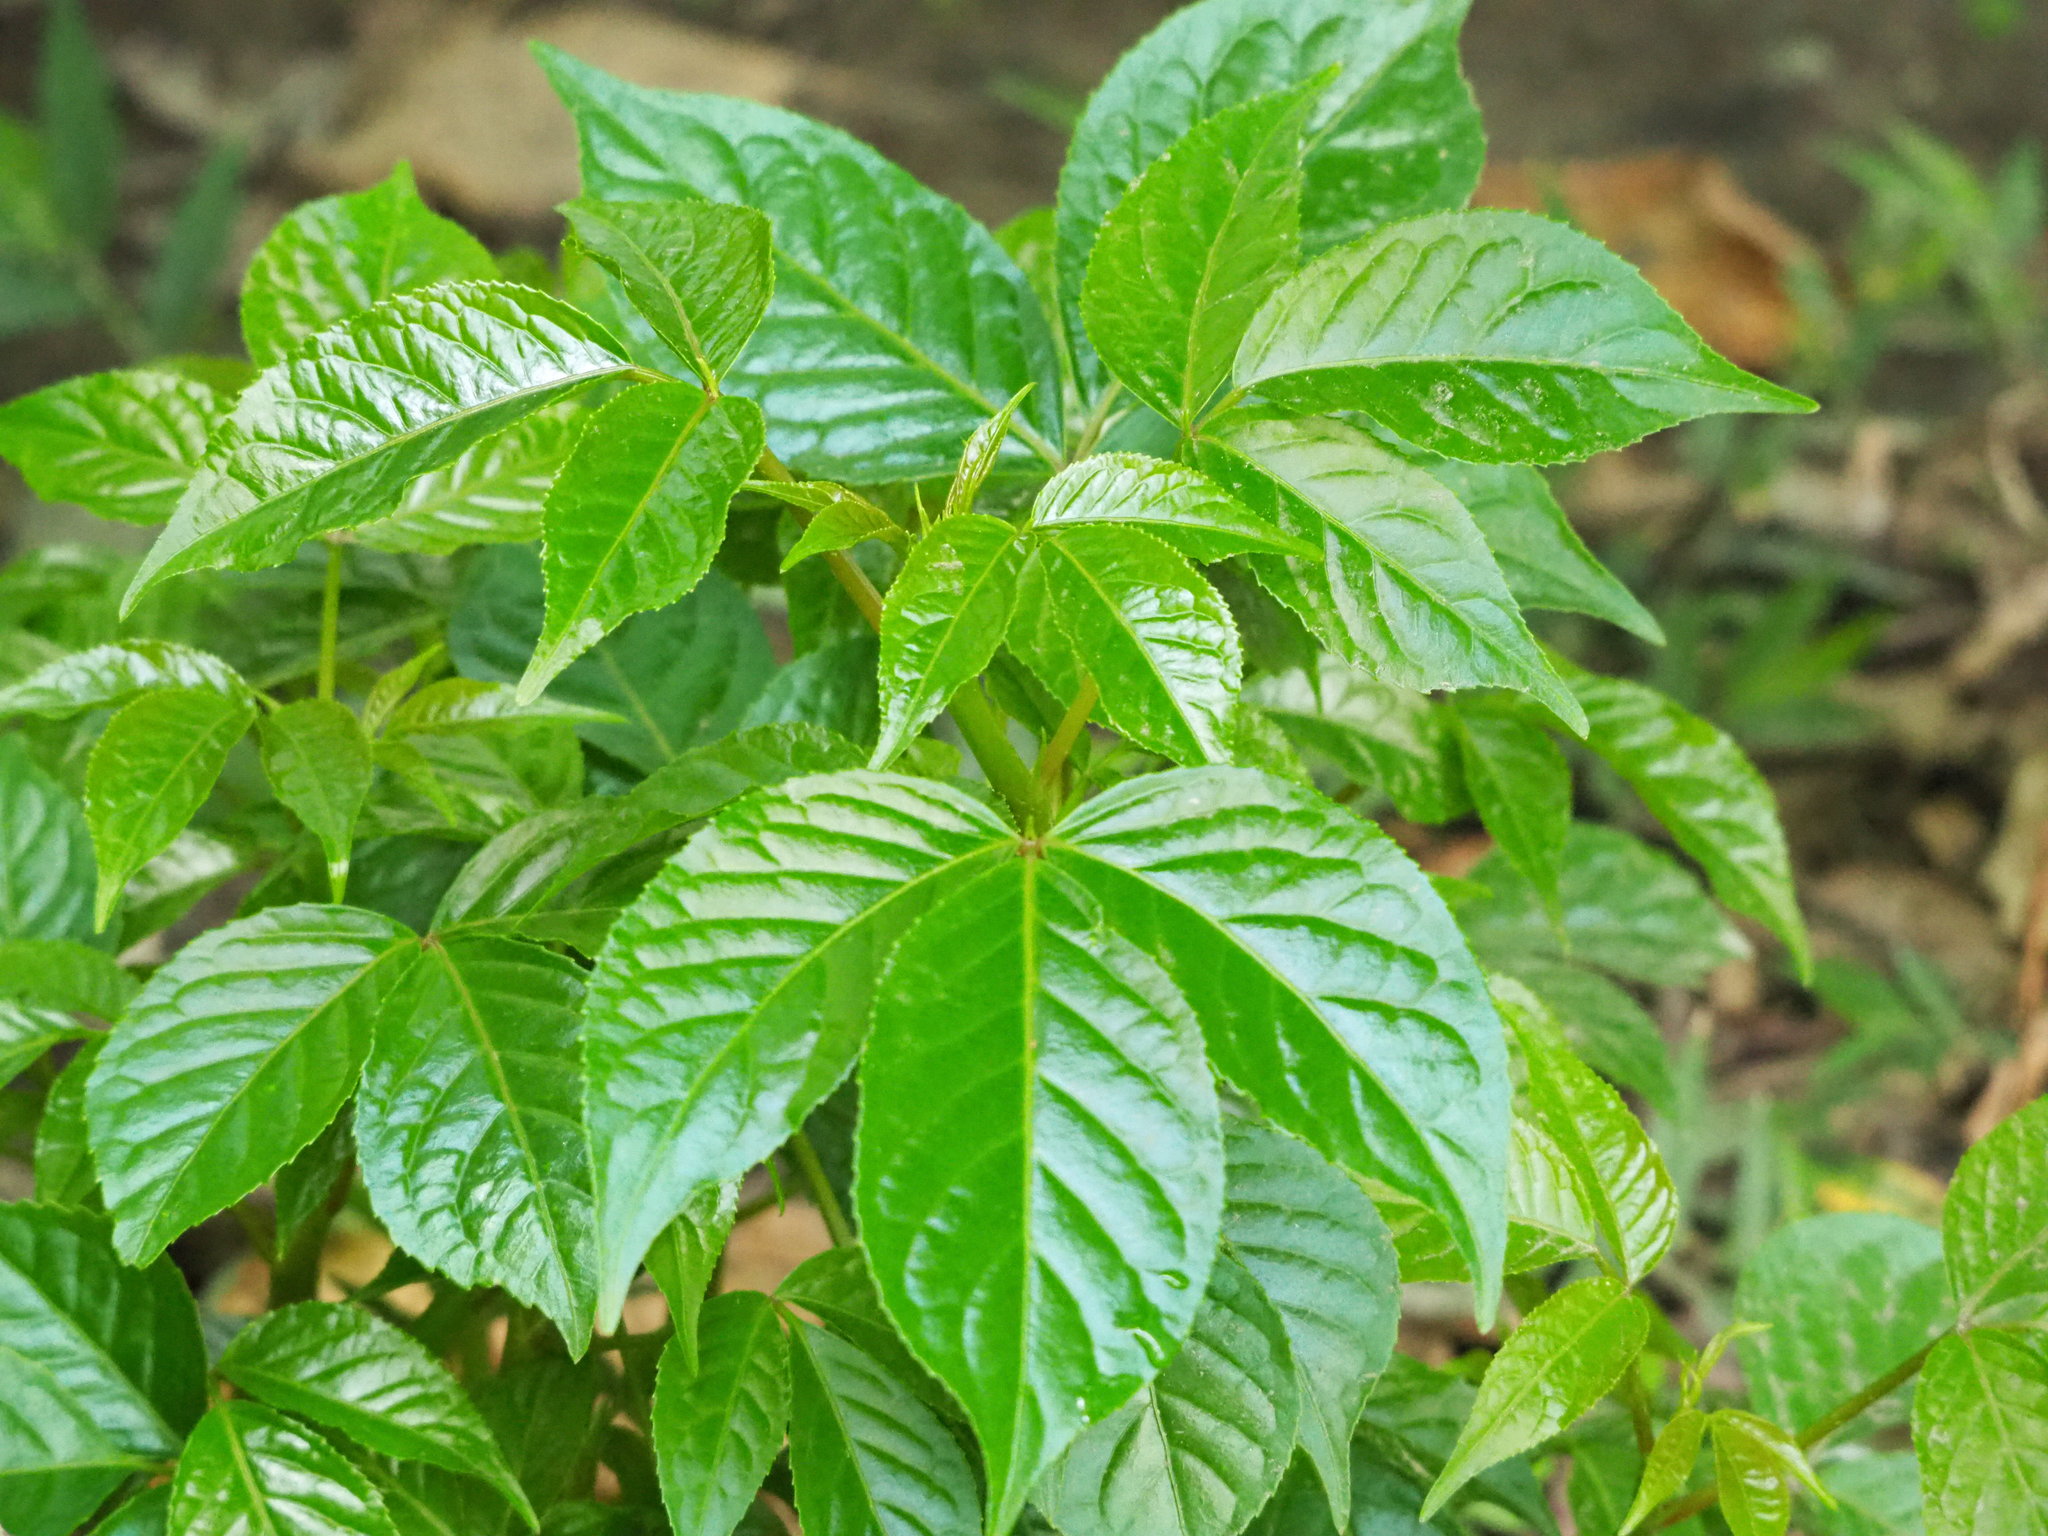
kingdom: Plantae
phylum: Tracheophyta
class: Magnoliopsida
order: Malpighiales
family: Phyllanthaceae
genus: Bischofia
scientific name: Bischofia javanica
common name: Javanese bishopwood
